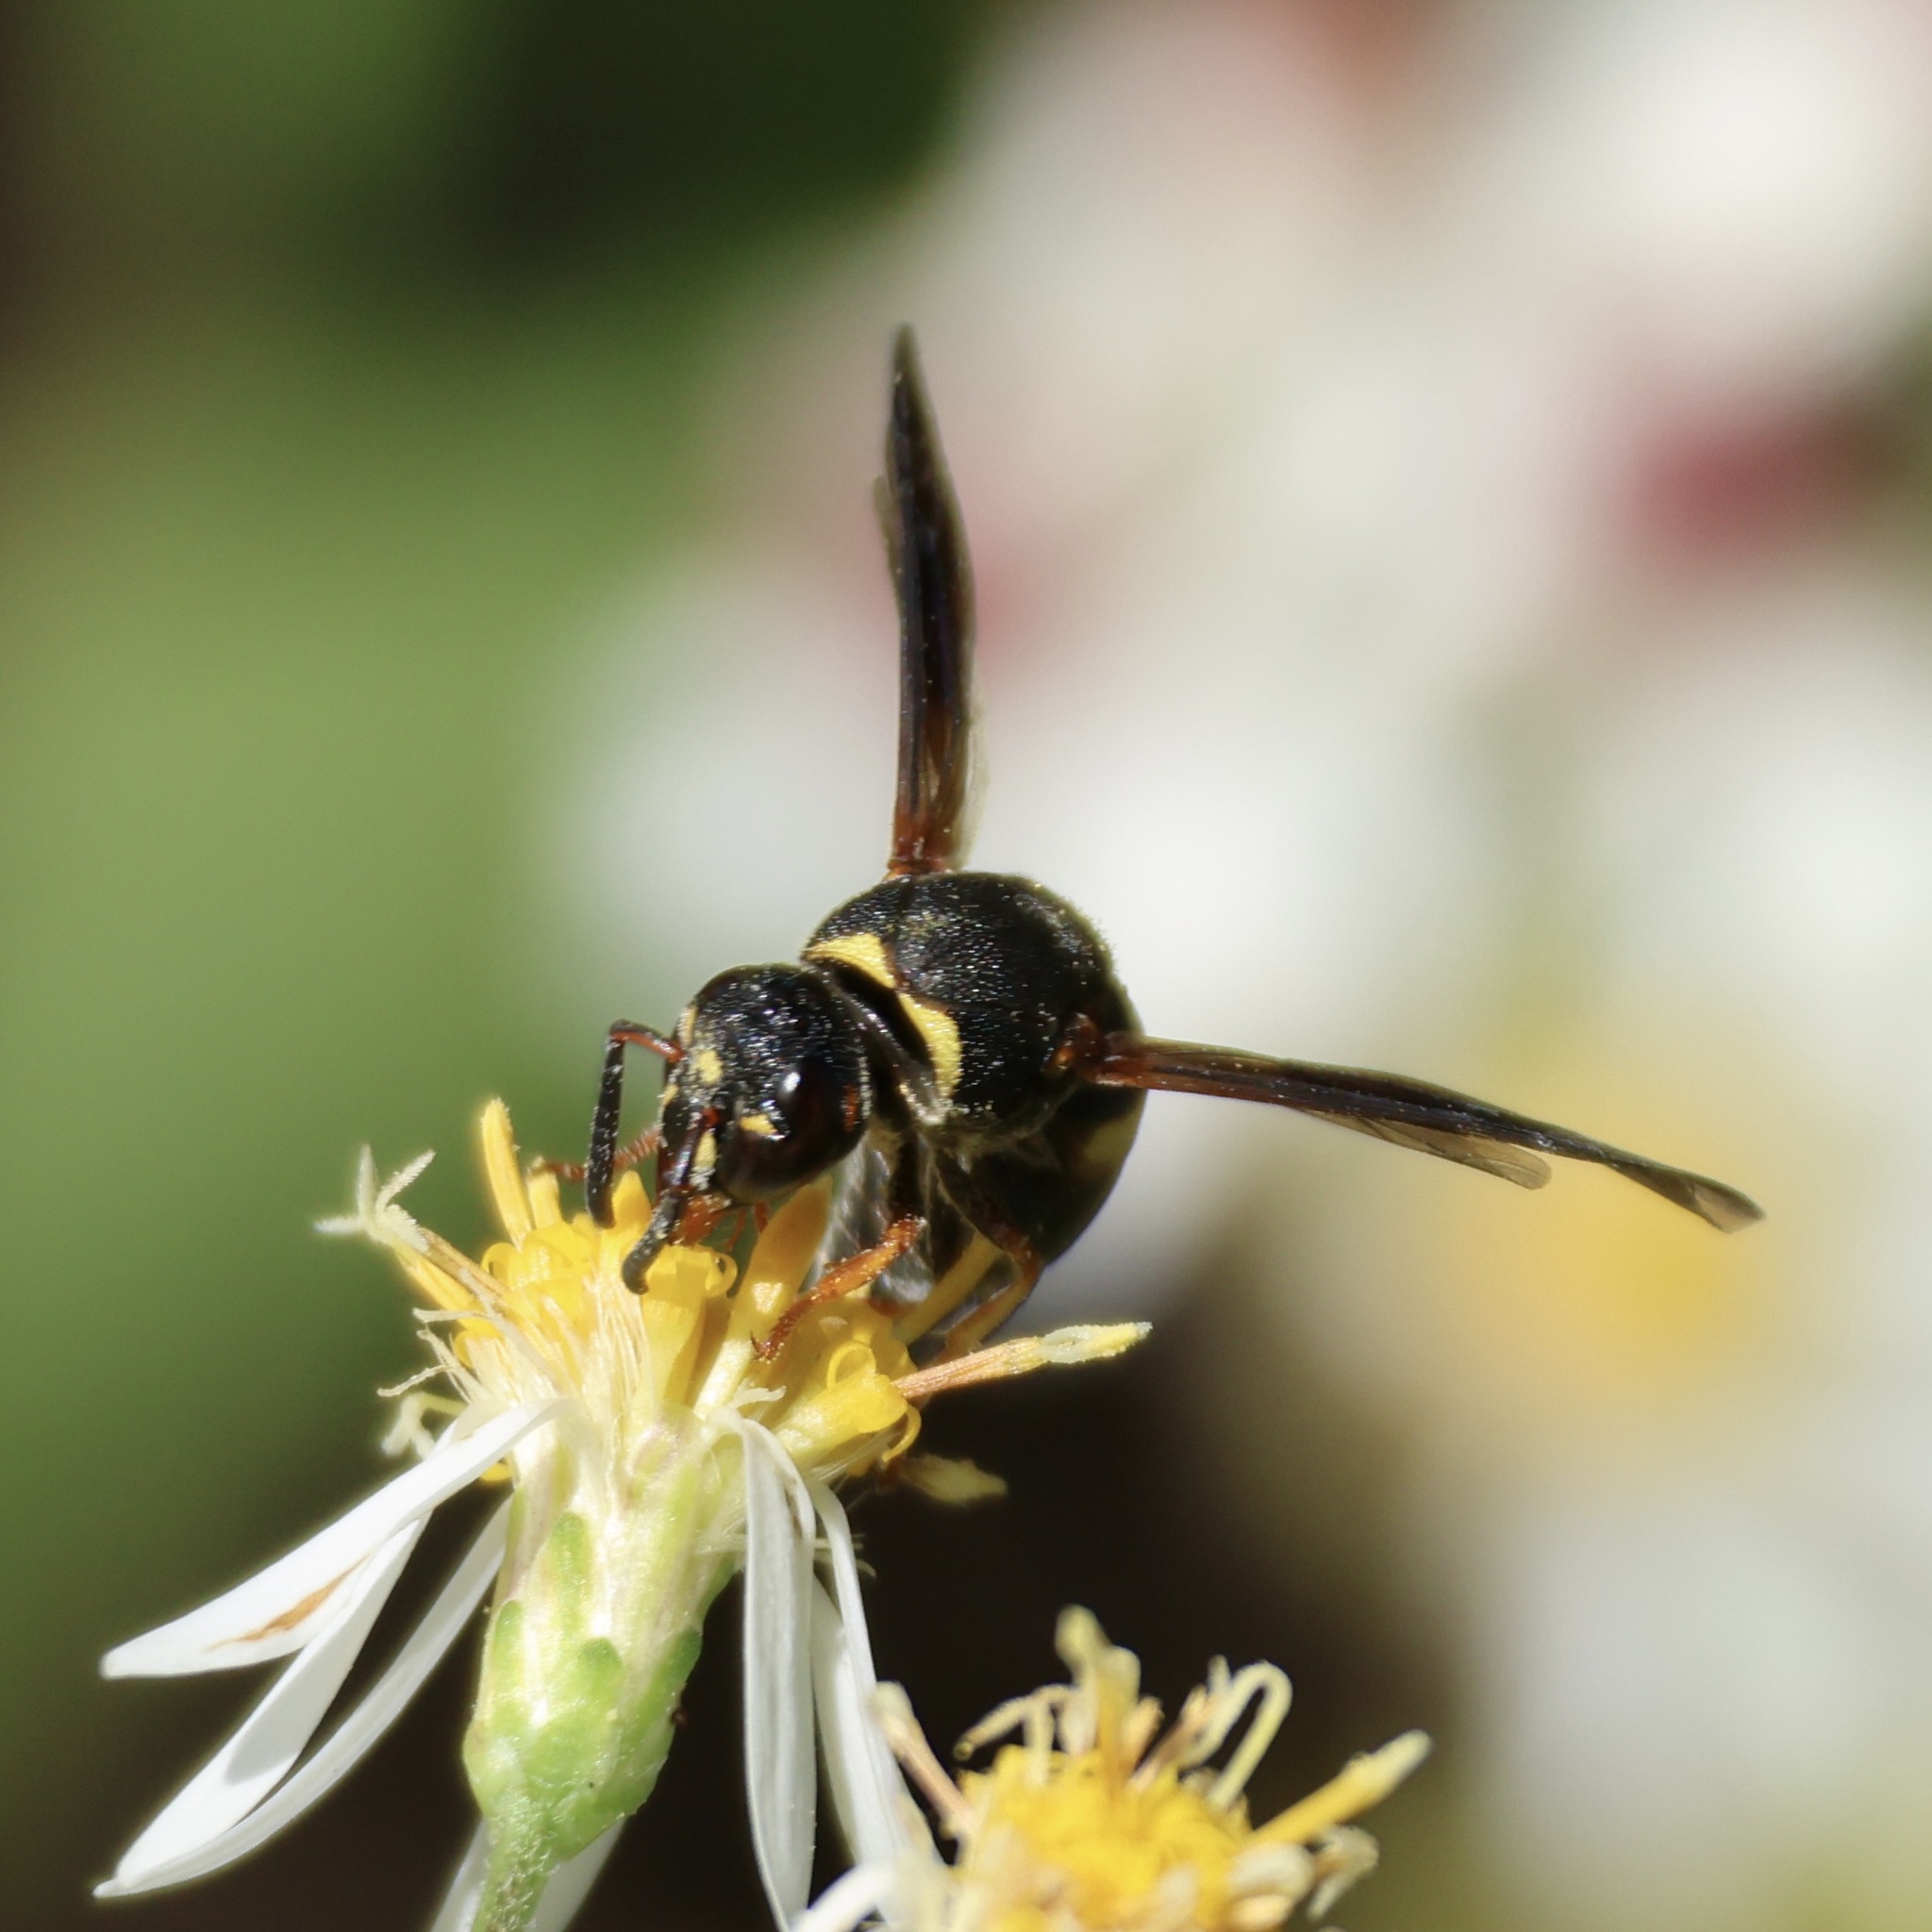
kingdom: Animalia
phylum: Arthropoda
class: Insecta
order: Hymenoptera
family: Eumenidae
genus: Euodynerus
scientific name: Euodynerus hidalgo
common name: Wasp
